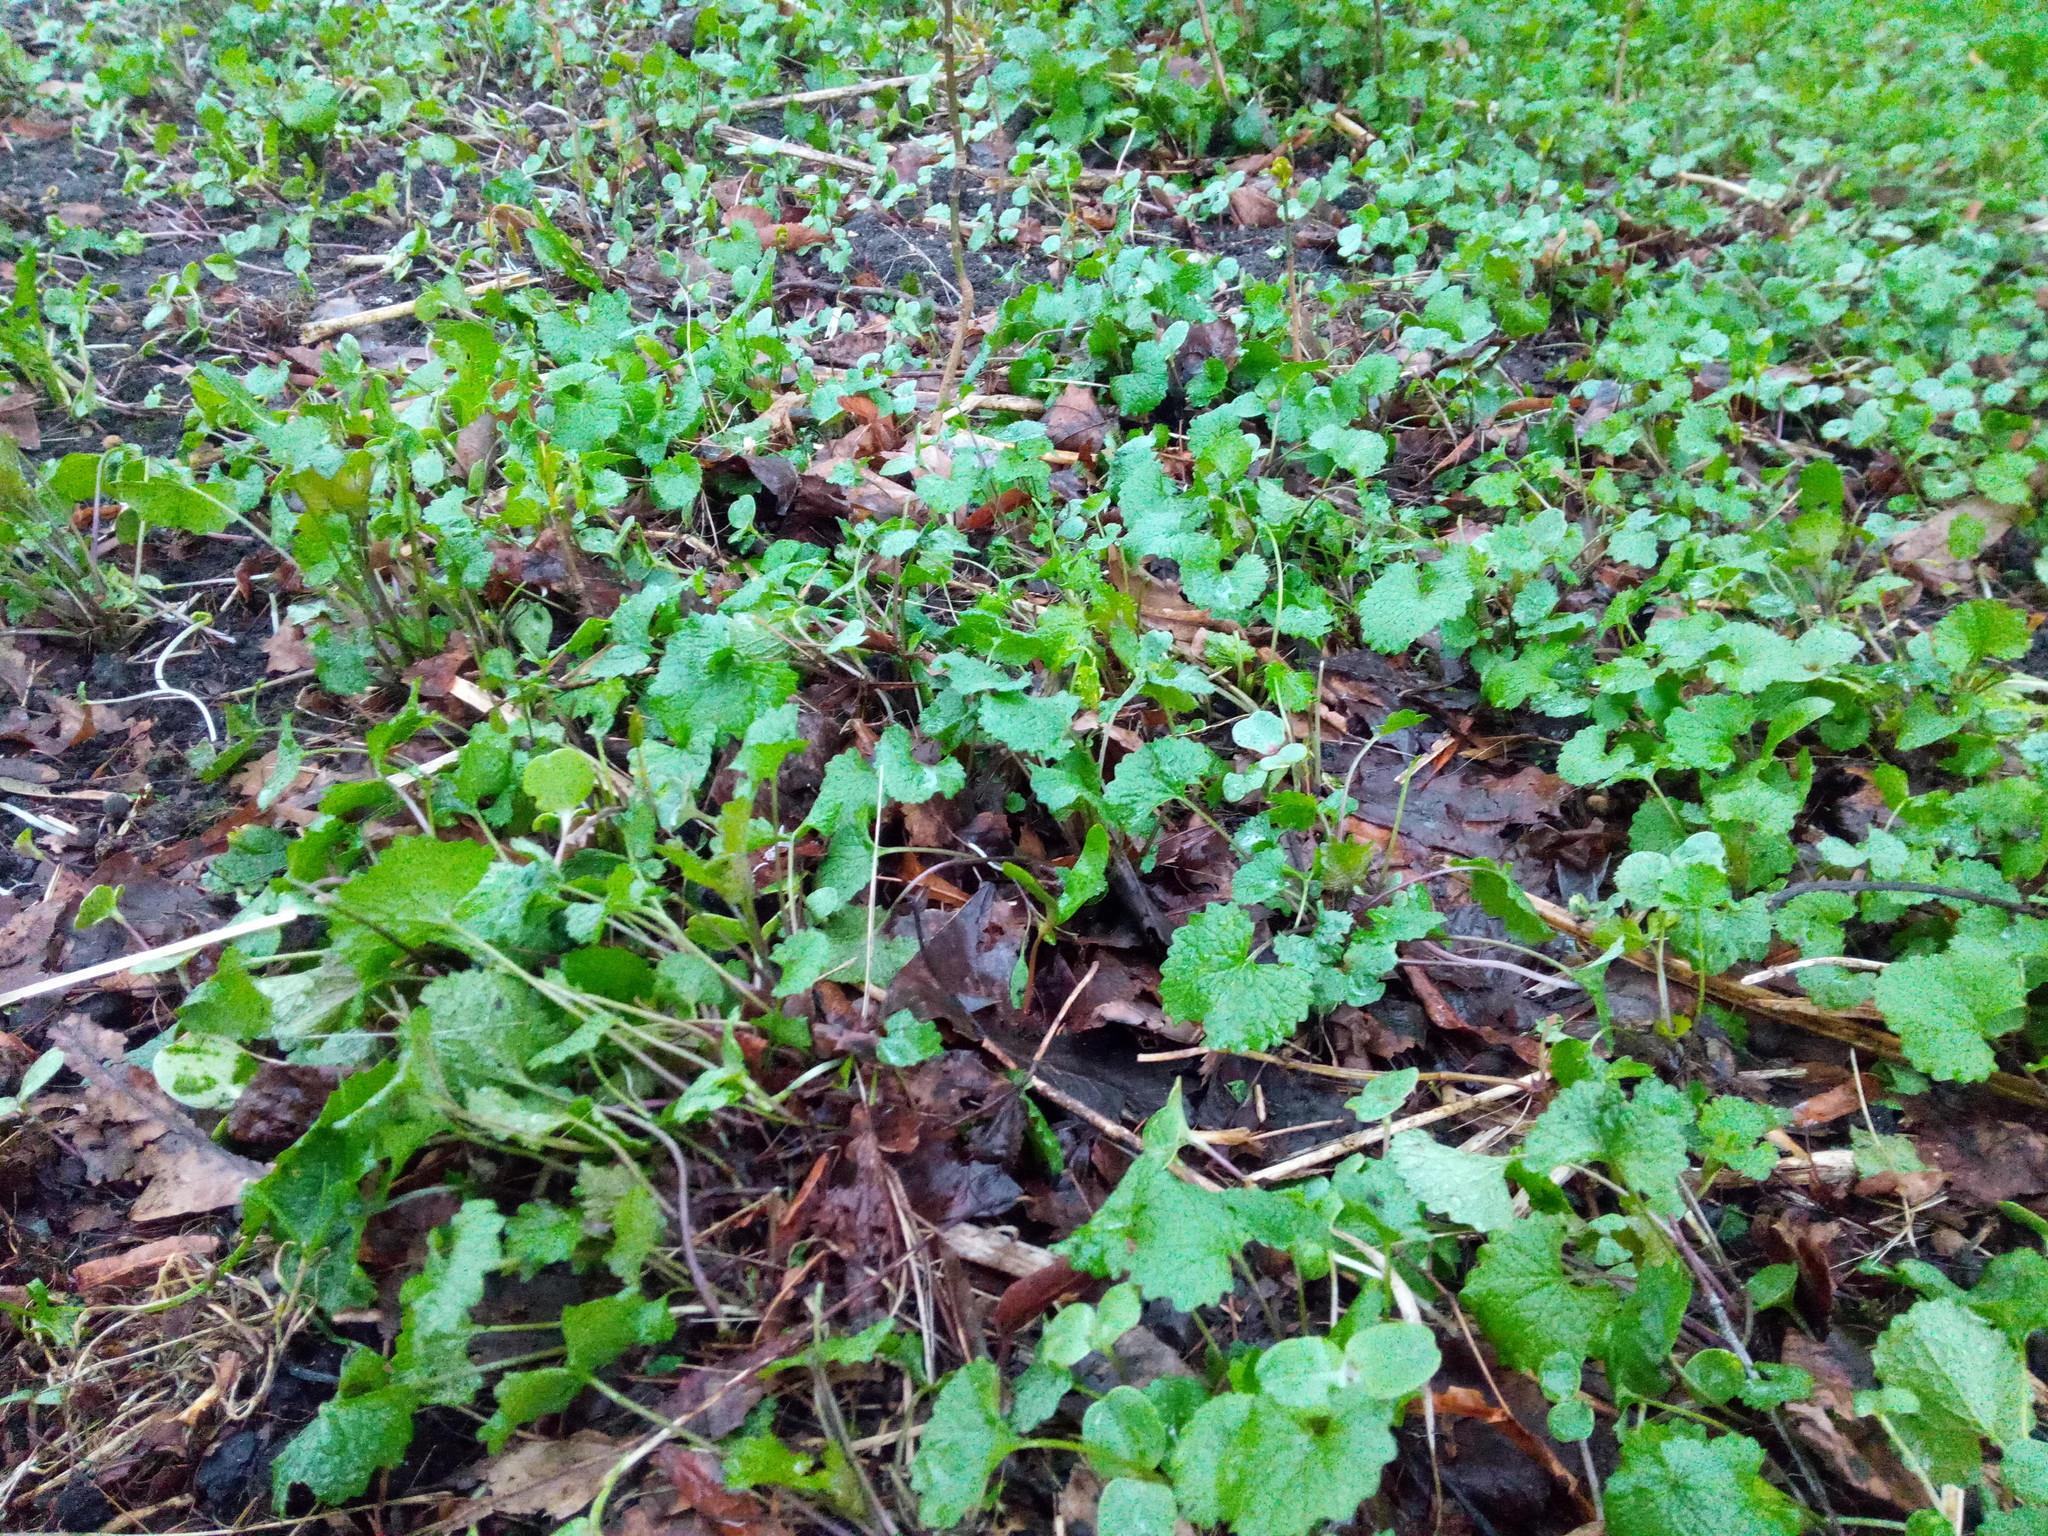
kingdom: Plantae
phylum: Tracheophyta
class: Magnoliopsida
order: Brassicales
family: Brassicaceae
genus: Alliaria
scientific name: Alliaria petiolata
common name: Garlic mustard
